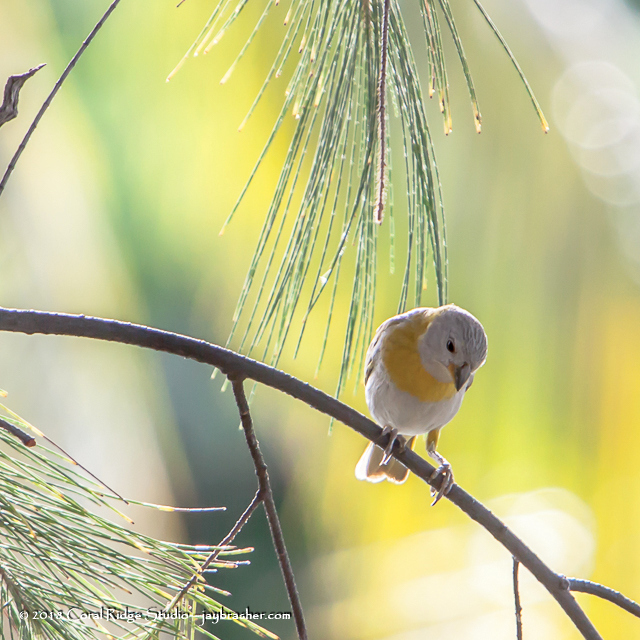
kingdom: Animalia
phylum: Chordata
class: Aves
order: Passeriformes
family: Thraupidae
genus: Sicalis
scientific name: Sicalis flaveola
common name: Saffron finch
